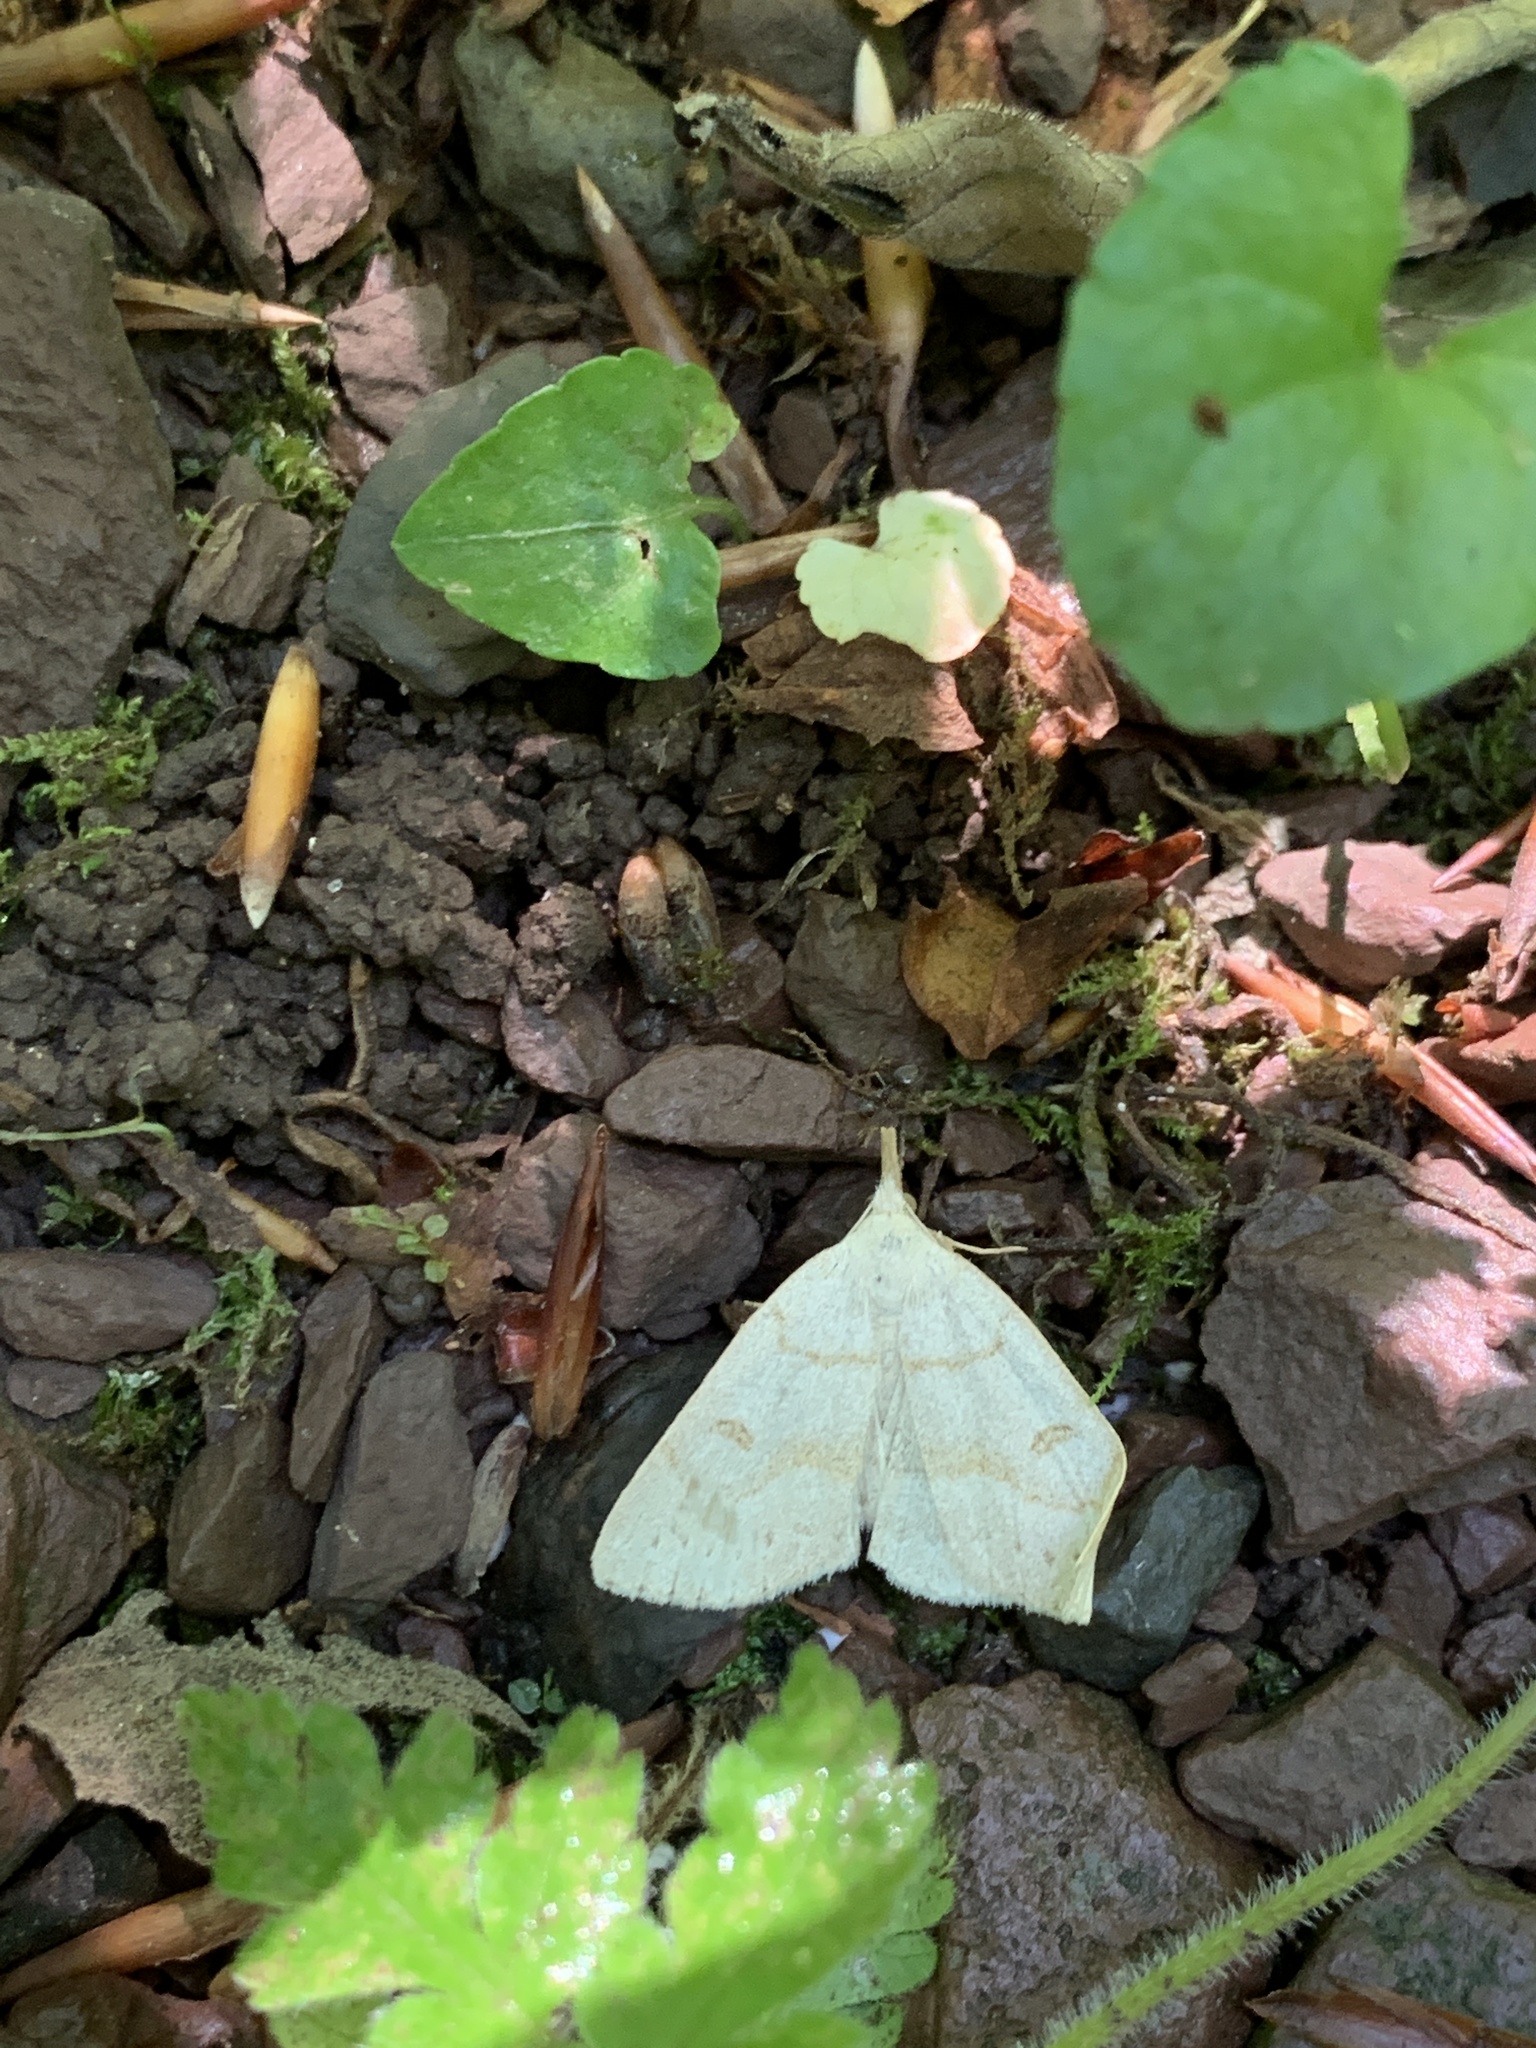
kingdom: Animalia
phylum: Arthropoda
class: Insecta
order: Lepidoptera
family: Erebidae
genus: Macrochilo
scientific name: Macrochilo morbidalis
